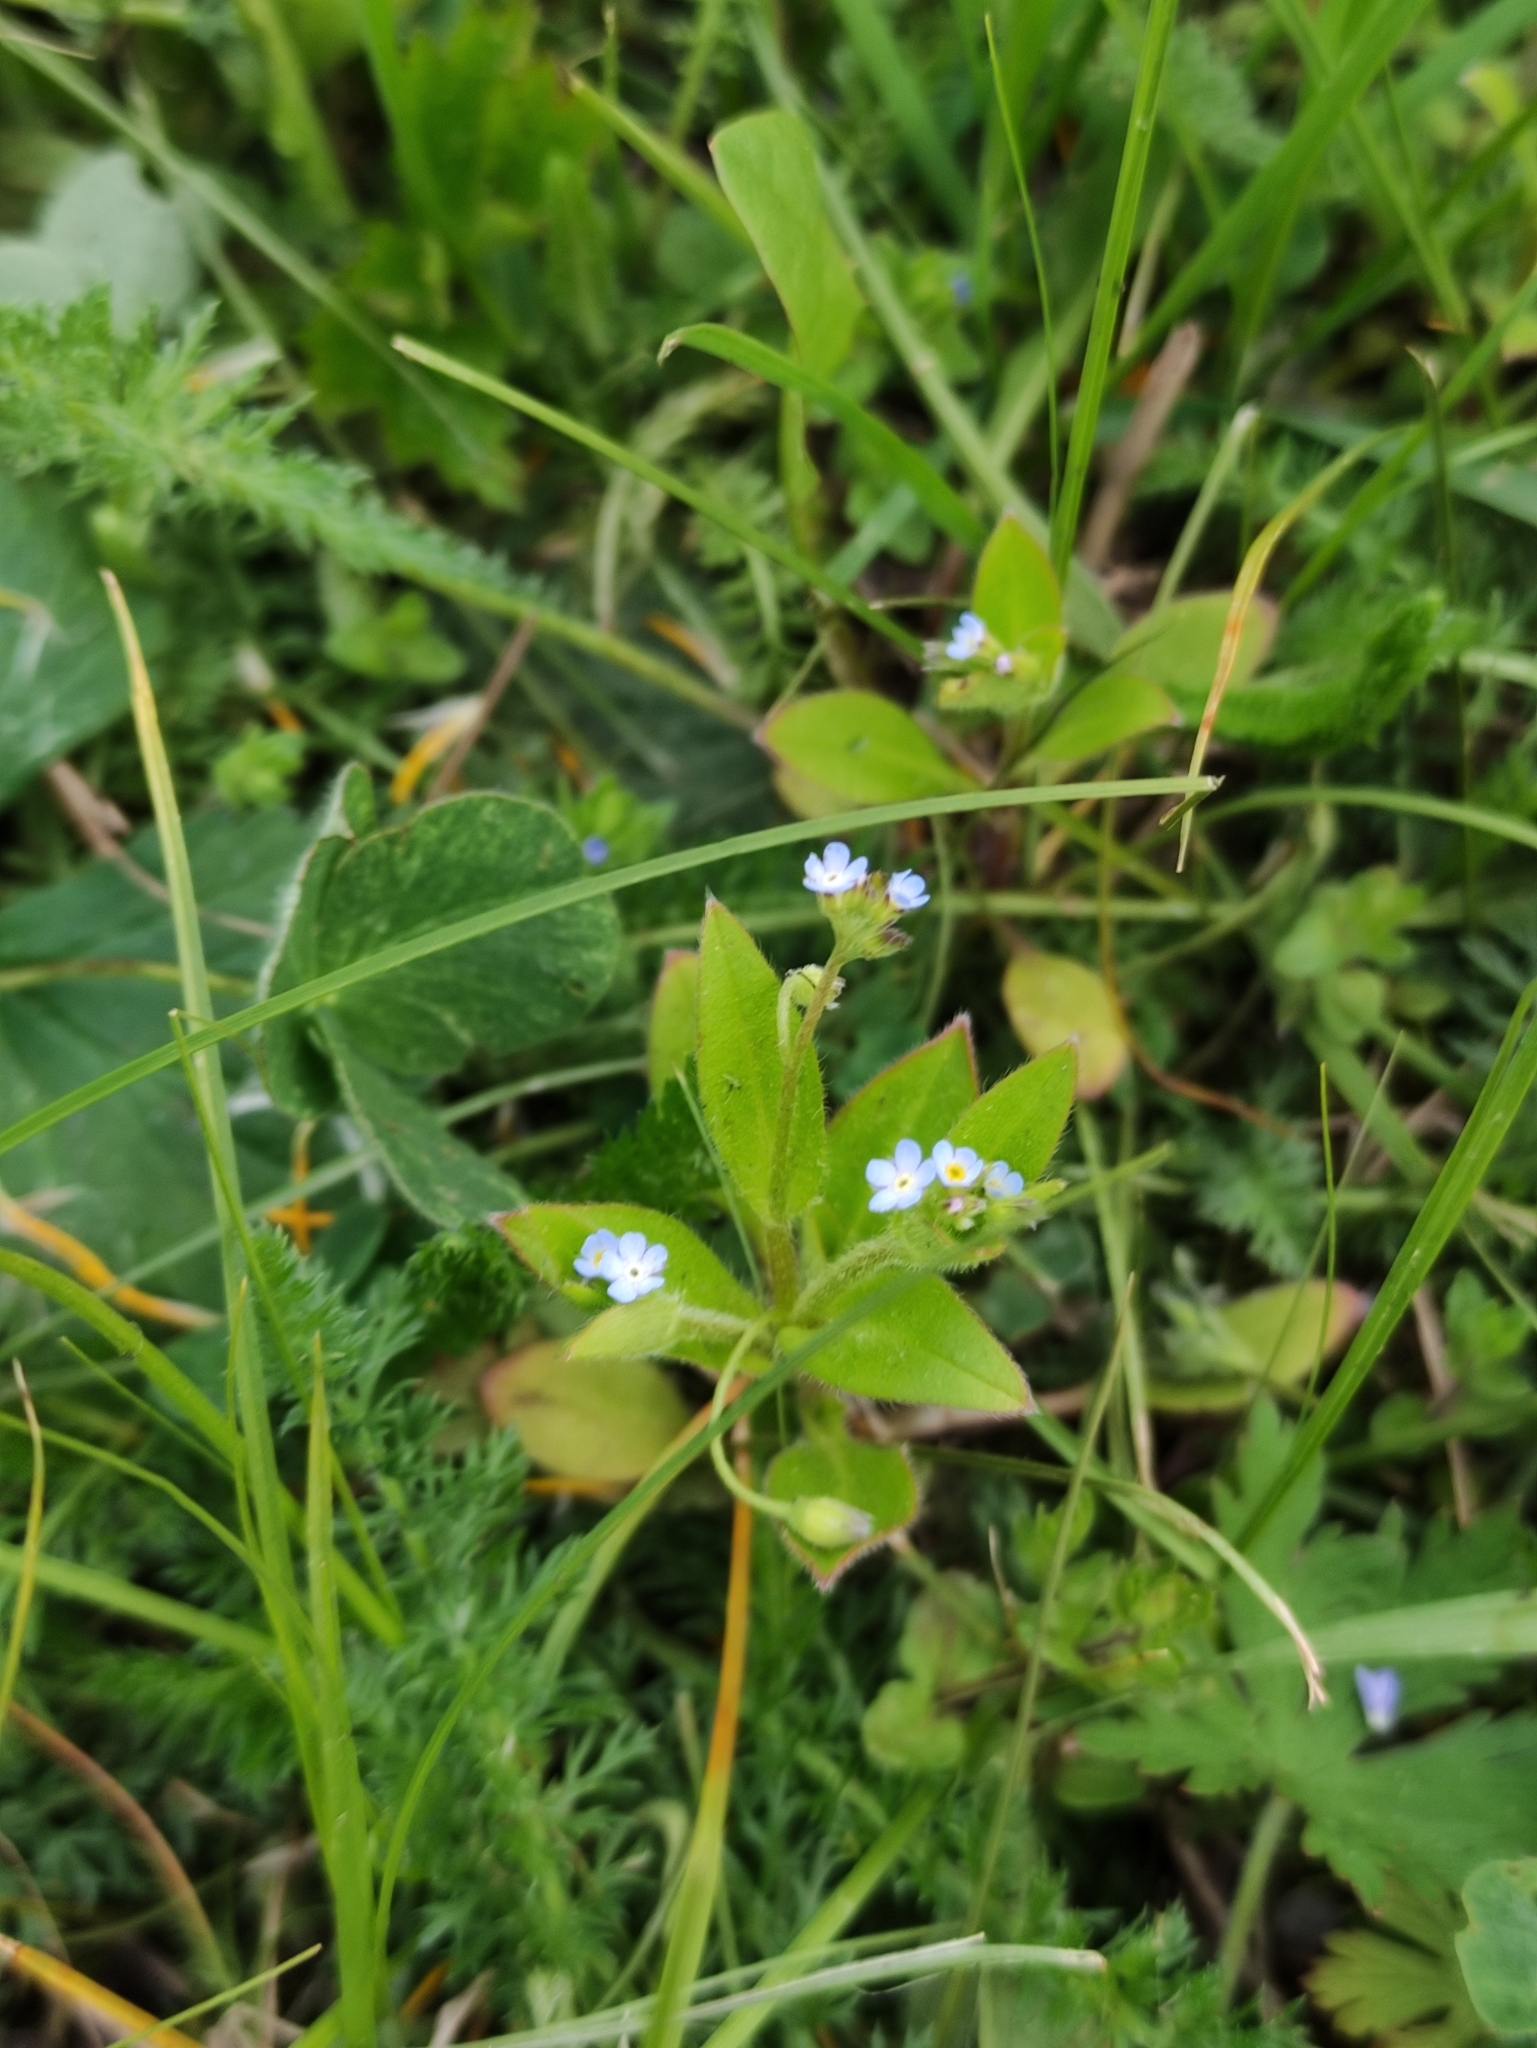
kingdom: Plantae
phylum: Tracheophyta
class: Magnoliopsida
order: Boraginales
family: Boraginaceae
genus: Myosotis
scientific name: Myosotis sparsiflora
